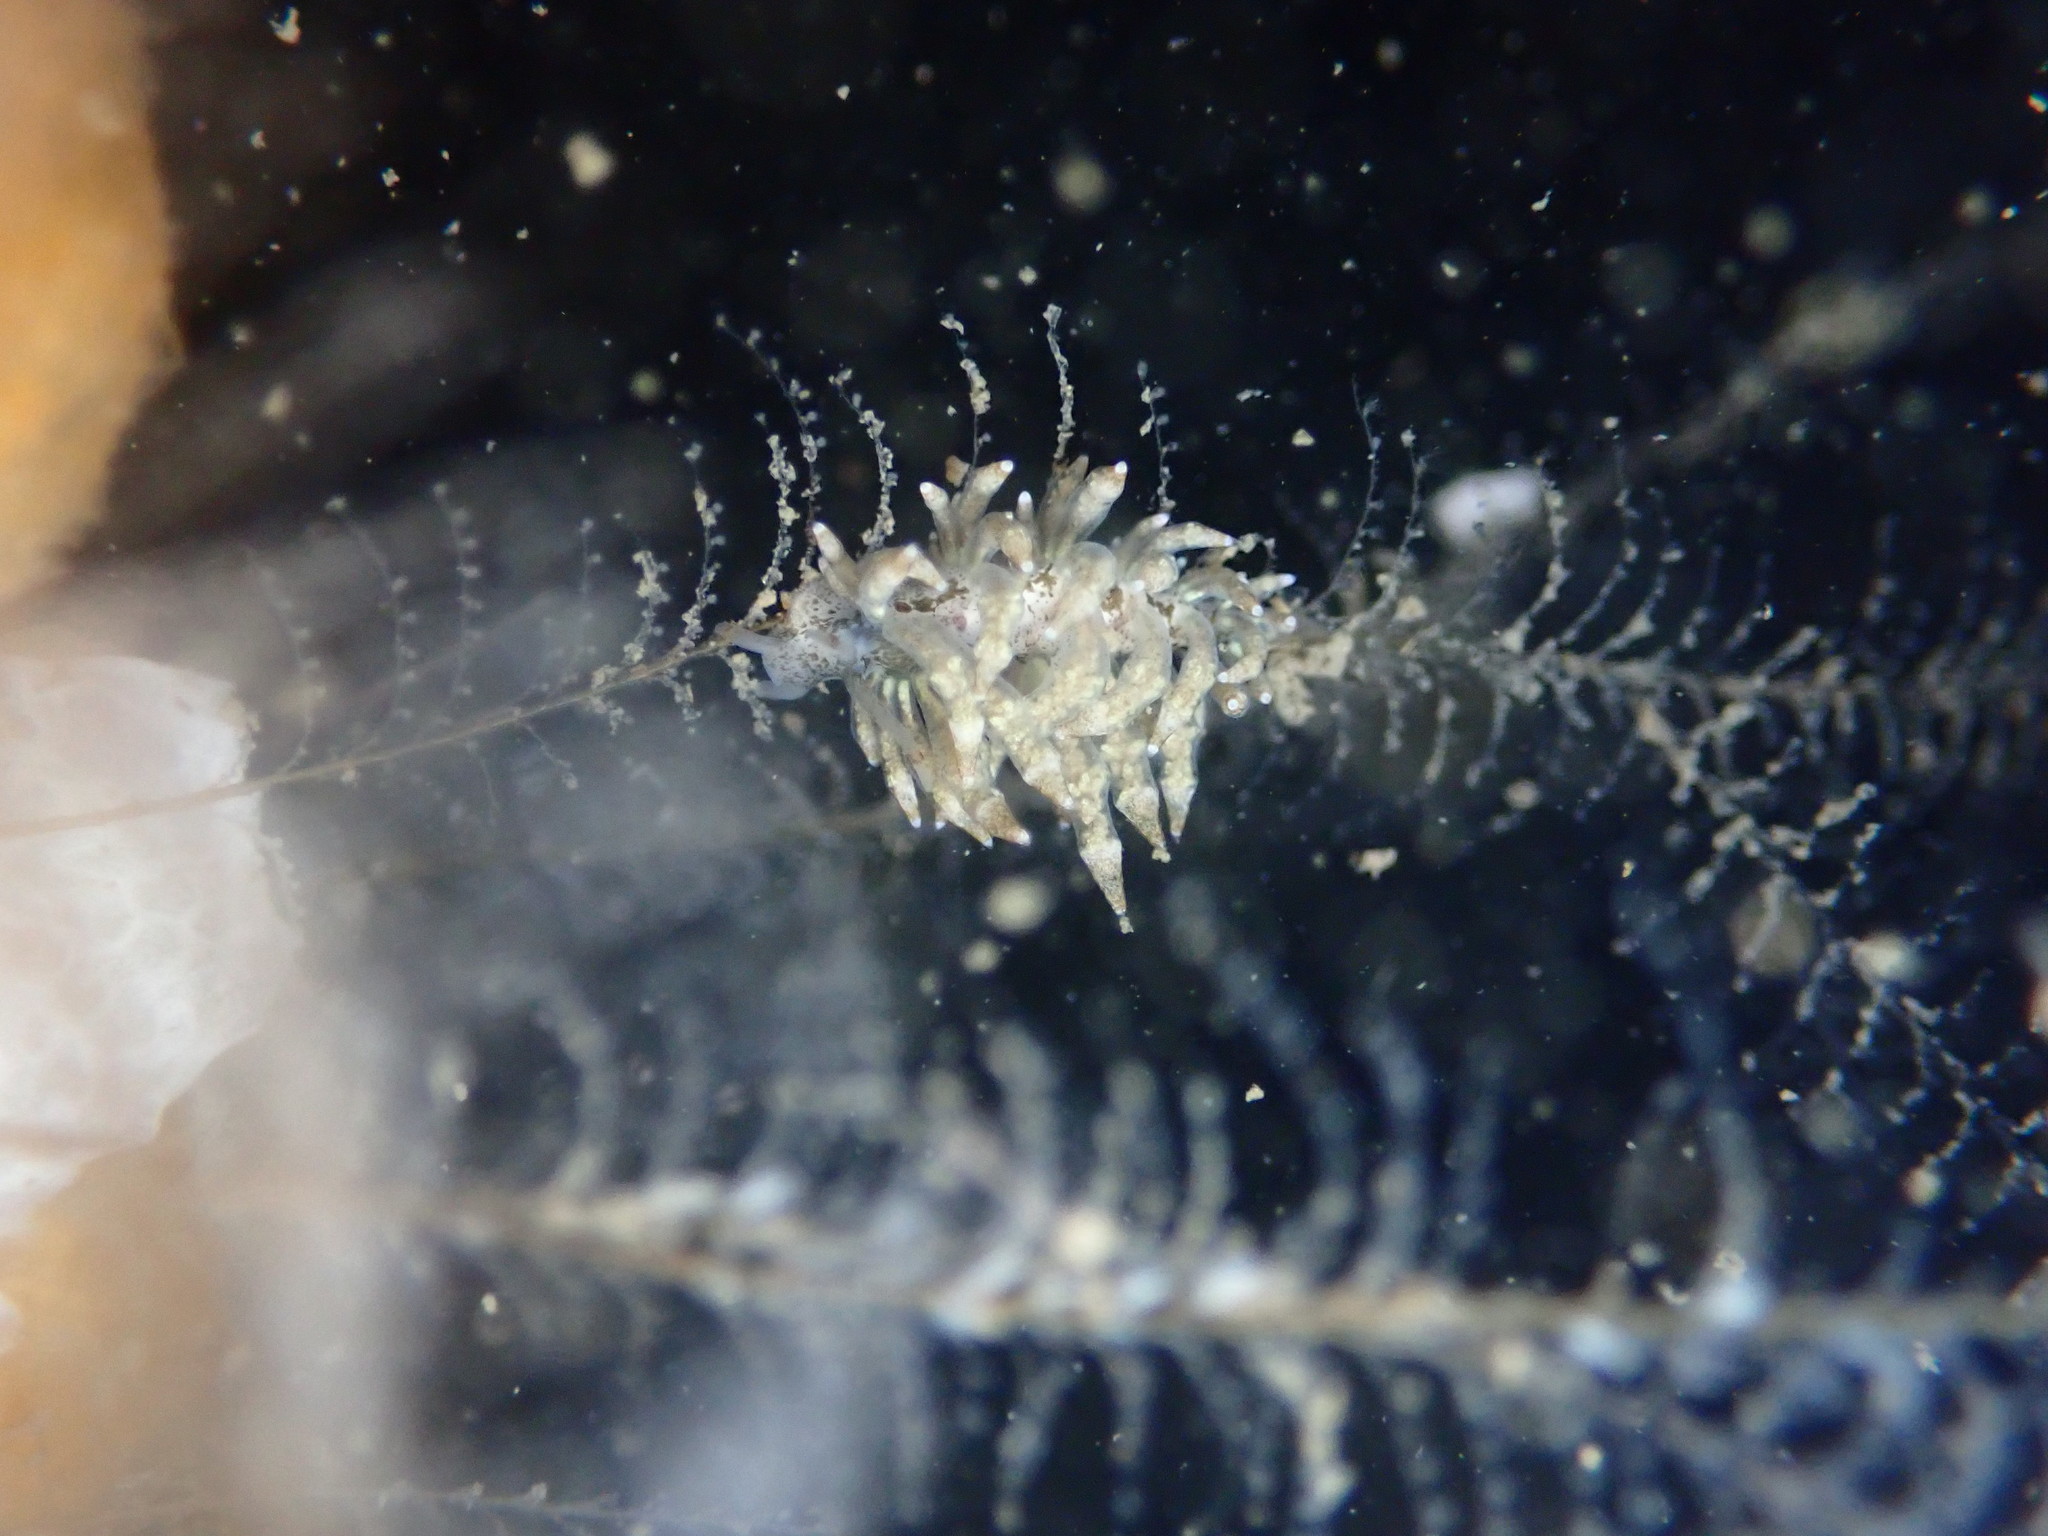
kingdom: Animalia
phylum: Mollusca
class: Gastropoda
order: Nudibranchia
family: Eubranchidae
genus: Eubranchus
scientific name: Eubranchus rustyus
